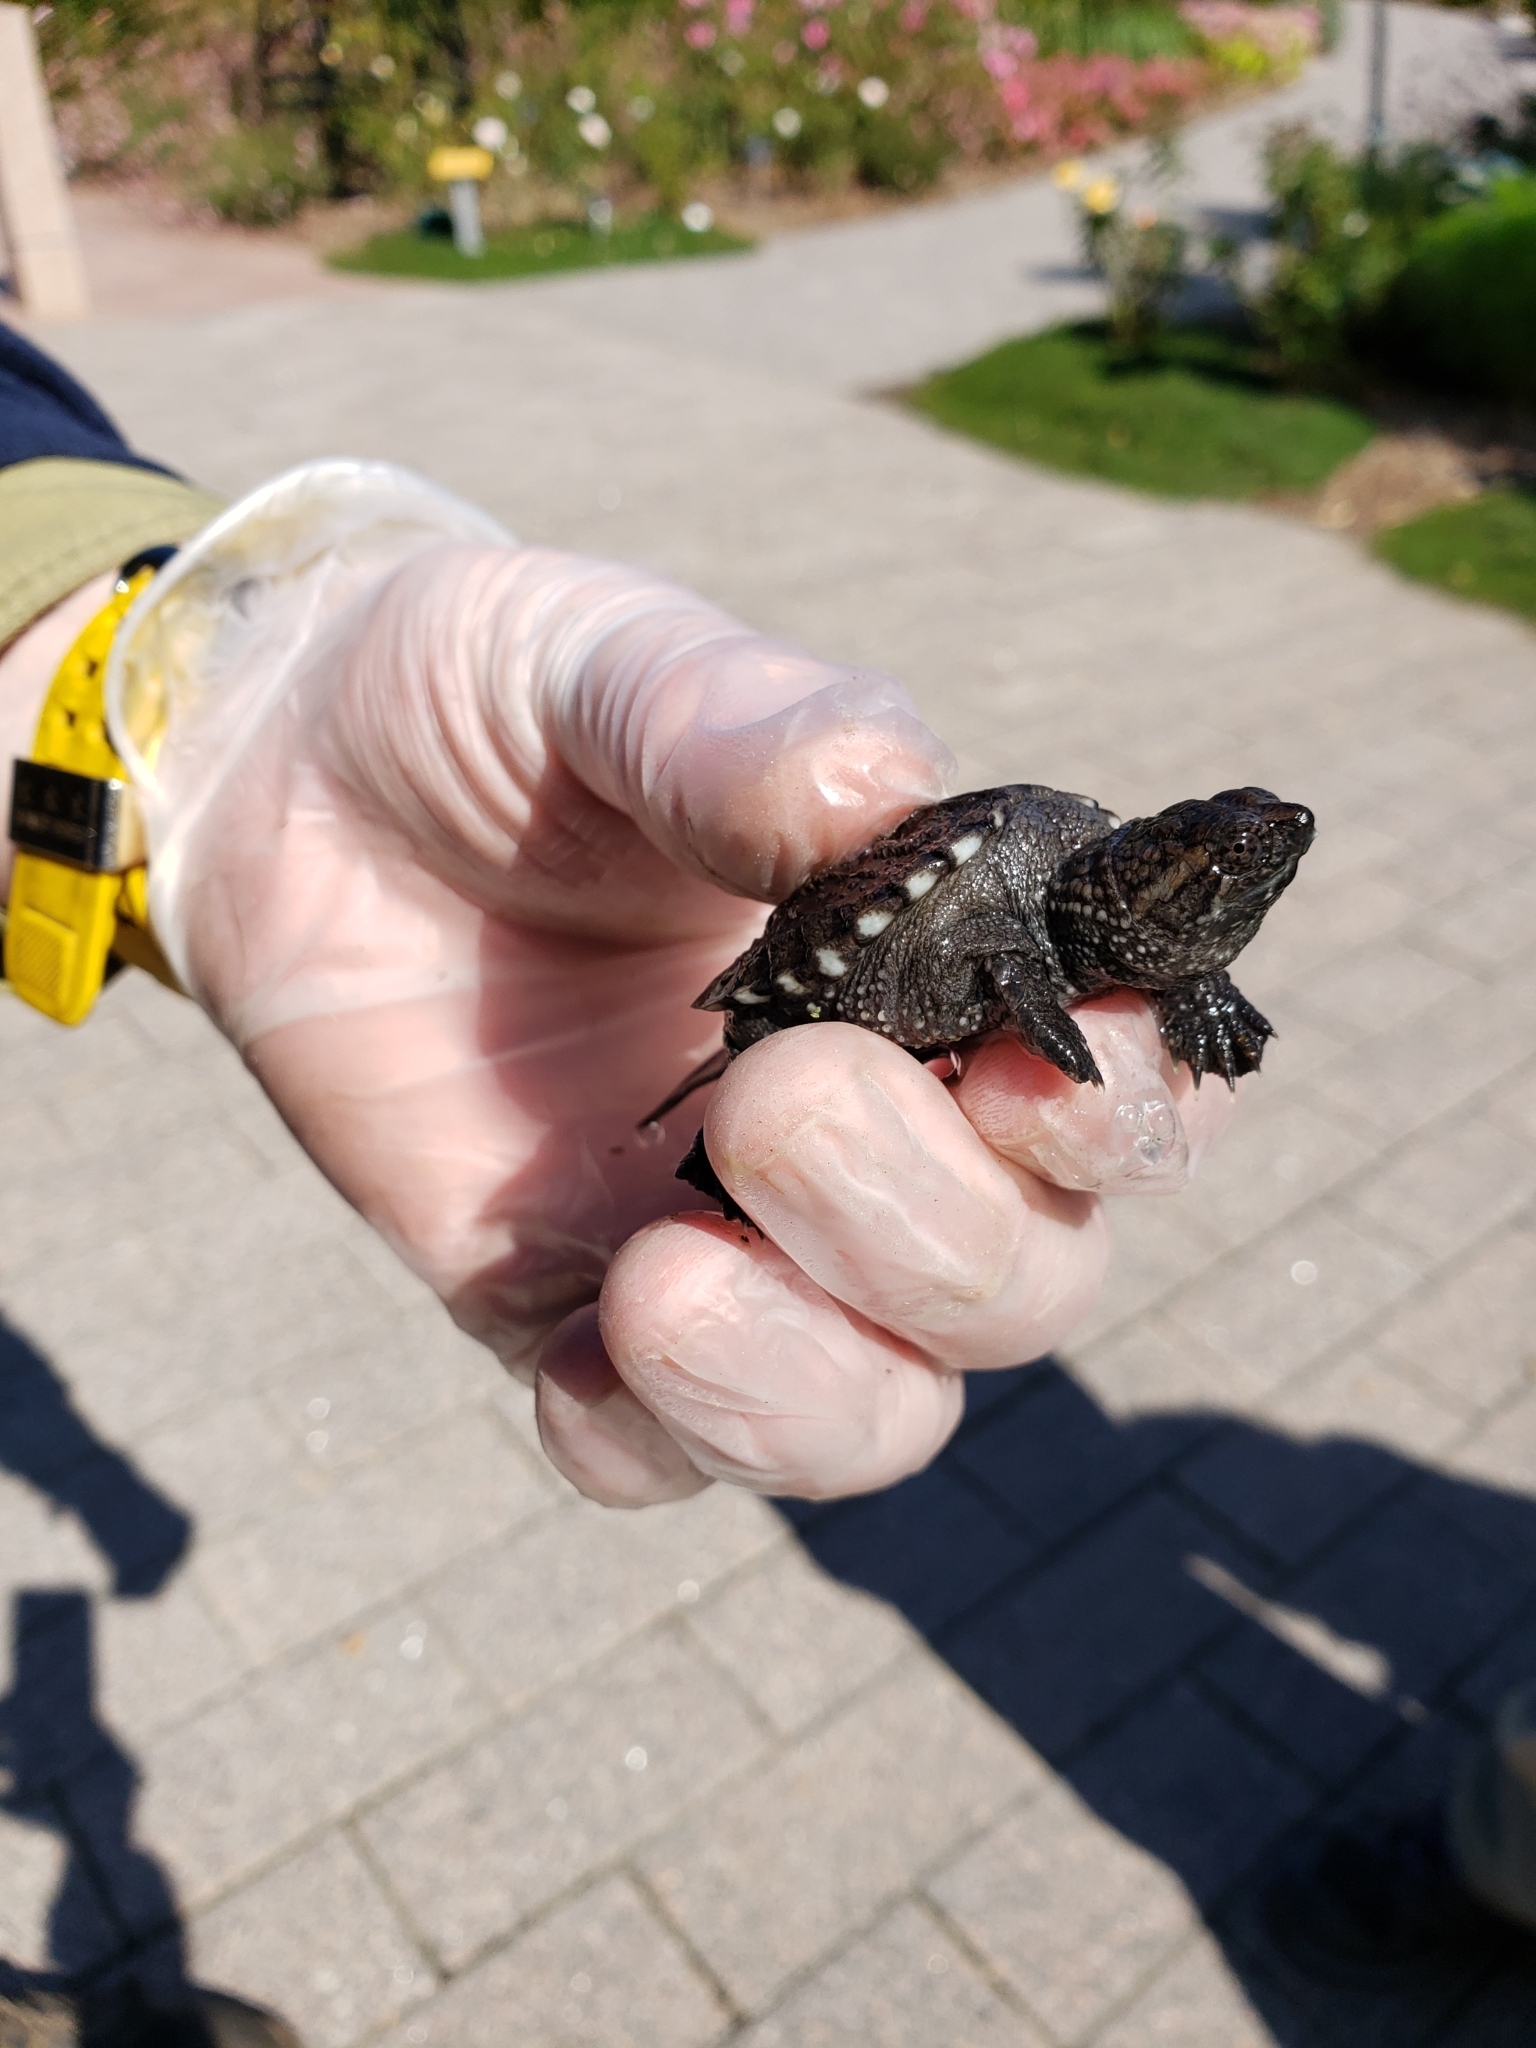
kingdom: Animalia
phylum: Chordata
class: Testudines
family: Chelydridae
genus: Chelydra
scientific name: Chelydra serpentina
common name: Common snapping turtle
